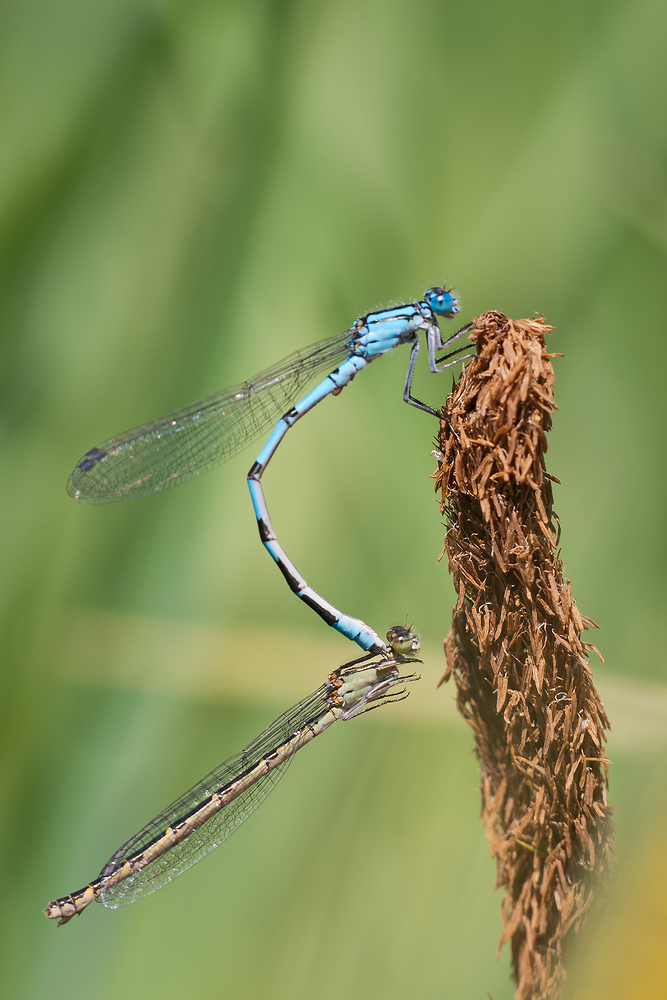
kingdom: Animalia
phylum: Arthropoda
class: Insecta
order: Odonata
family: Coenagrionidae
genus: Enallagma
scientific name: Enallagma cyathigerum
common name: Common blue damselfly
